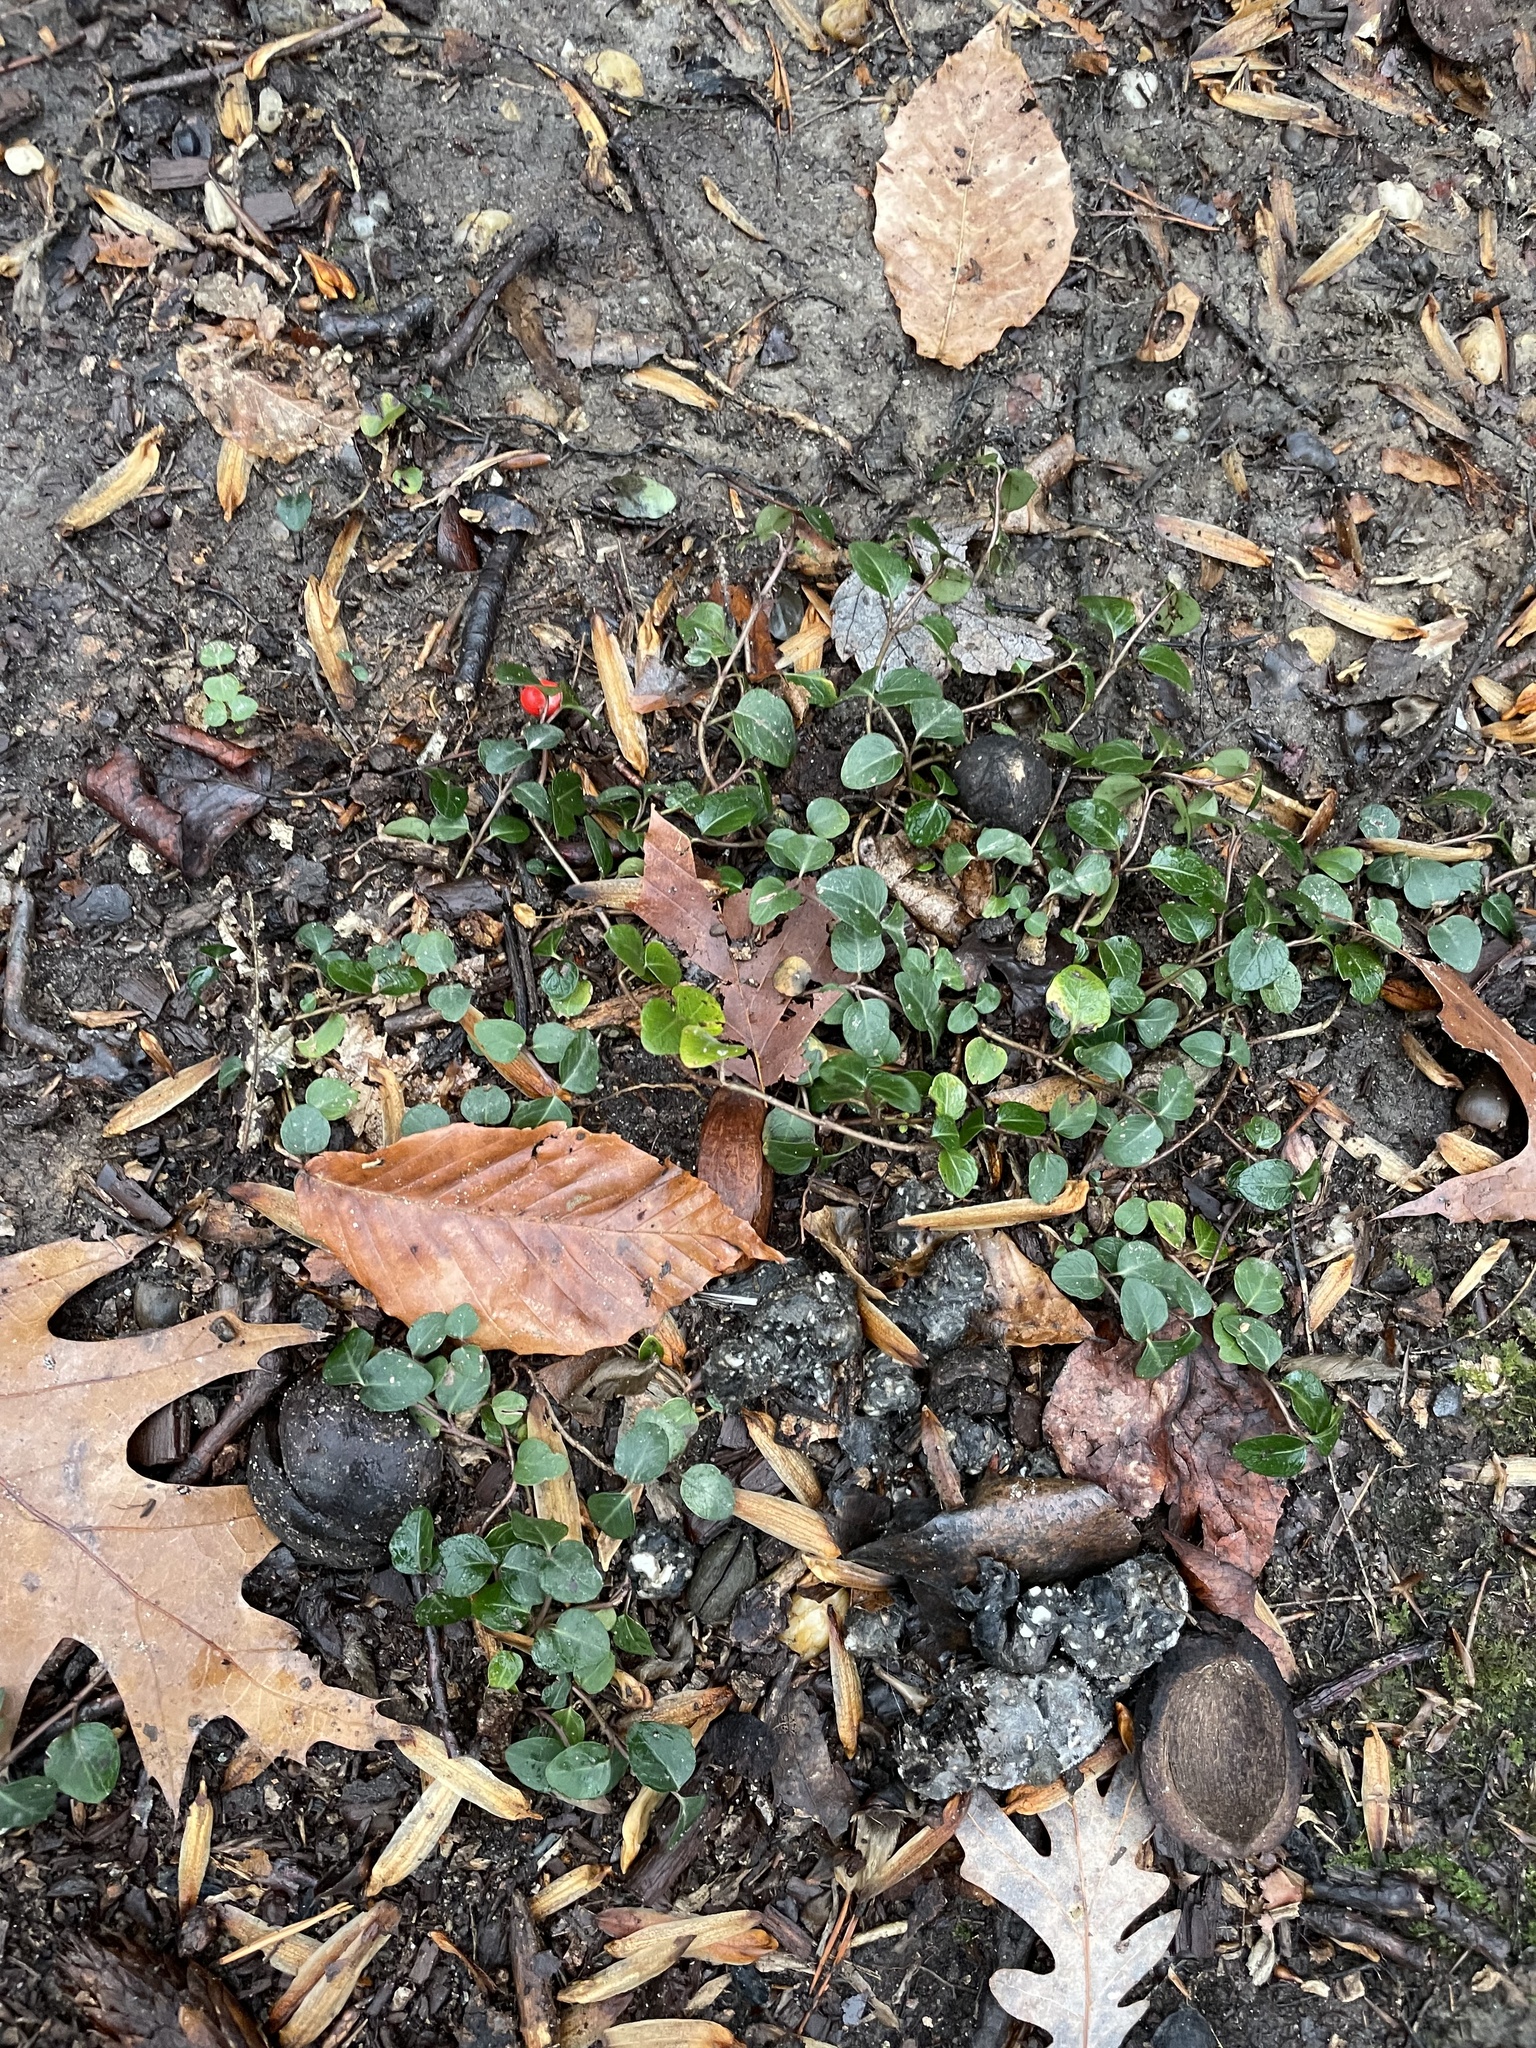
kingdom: Plantae
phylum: Tracheophyta
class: Magnoliopsida
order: Gentianales
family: Rubiaceae
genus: Mitchella
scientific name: Mitchella repens
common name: Partridge-berry
